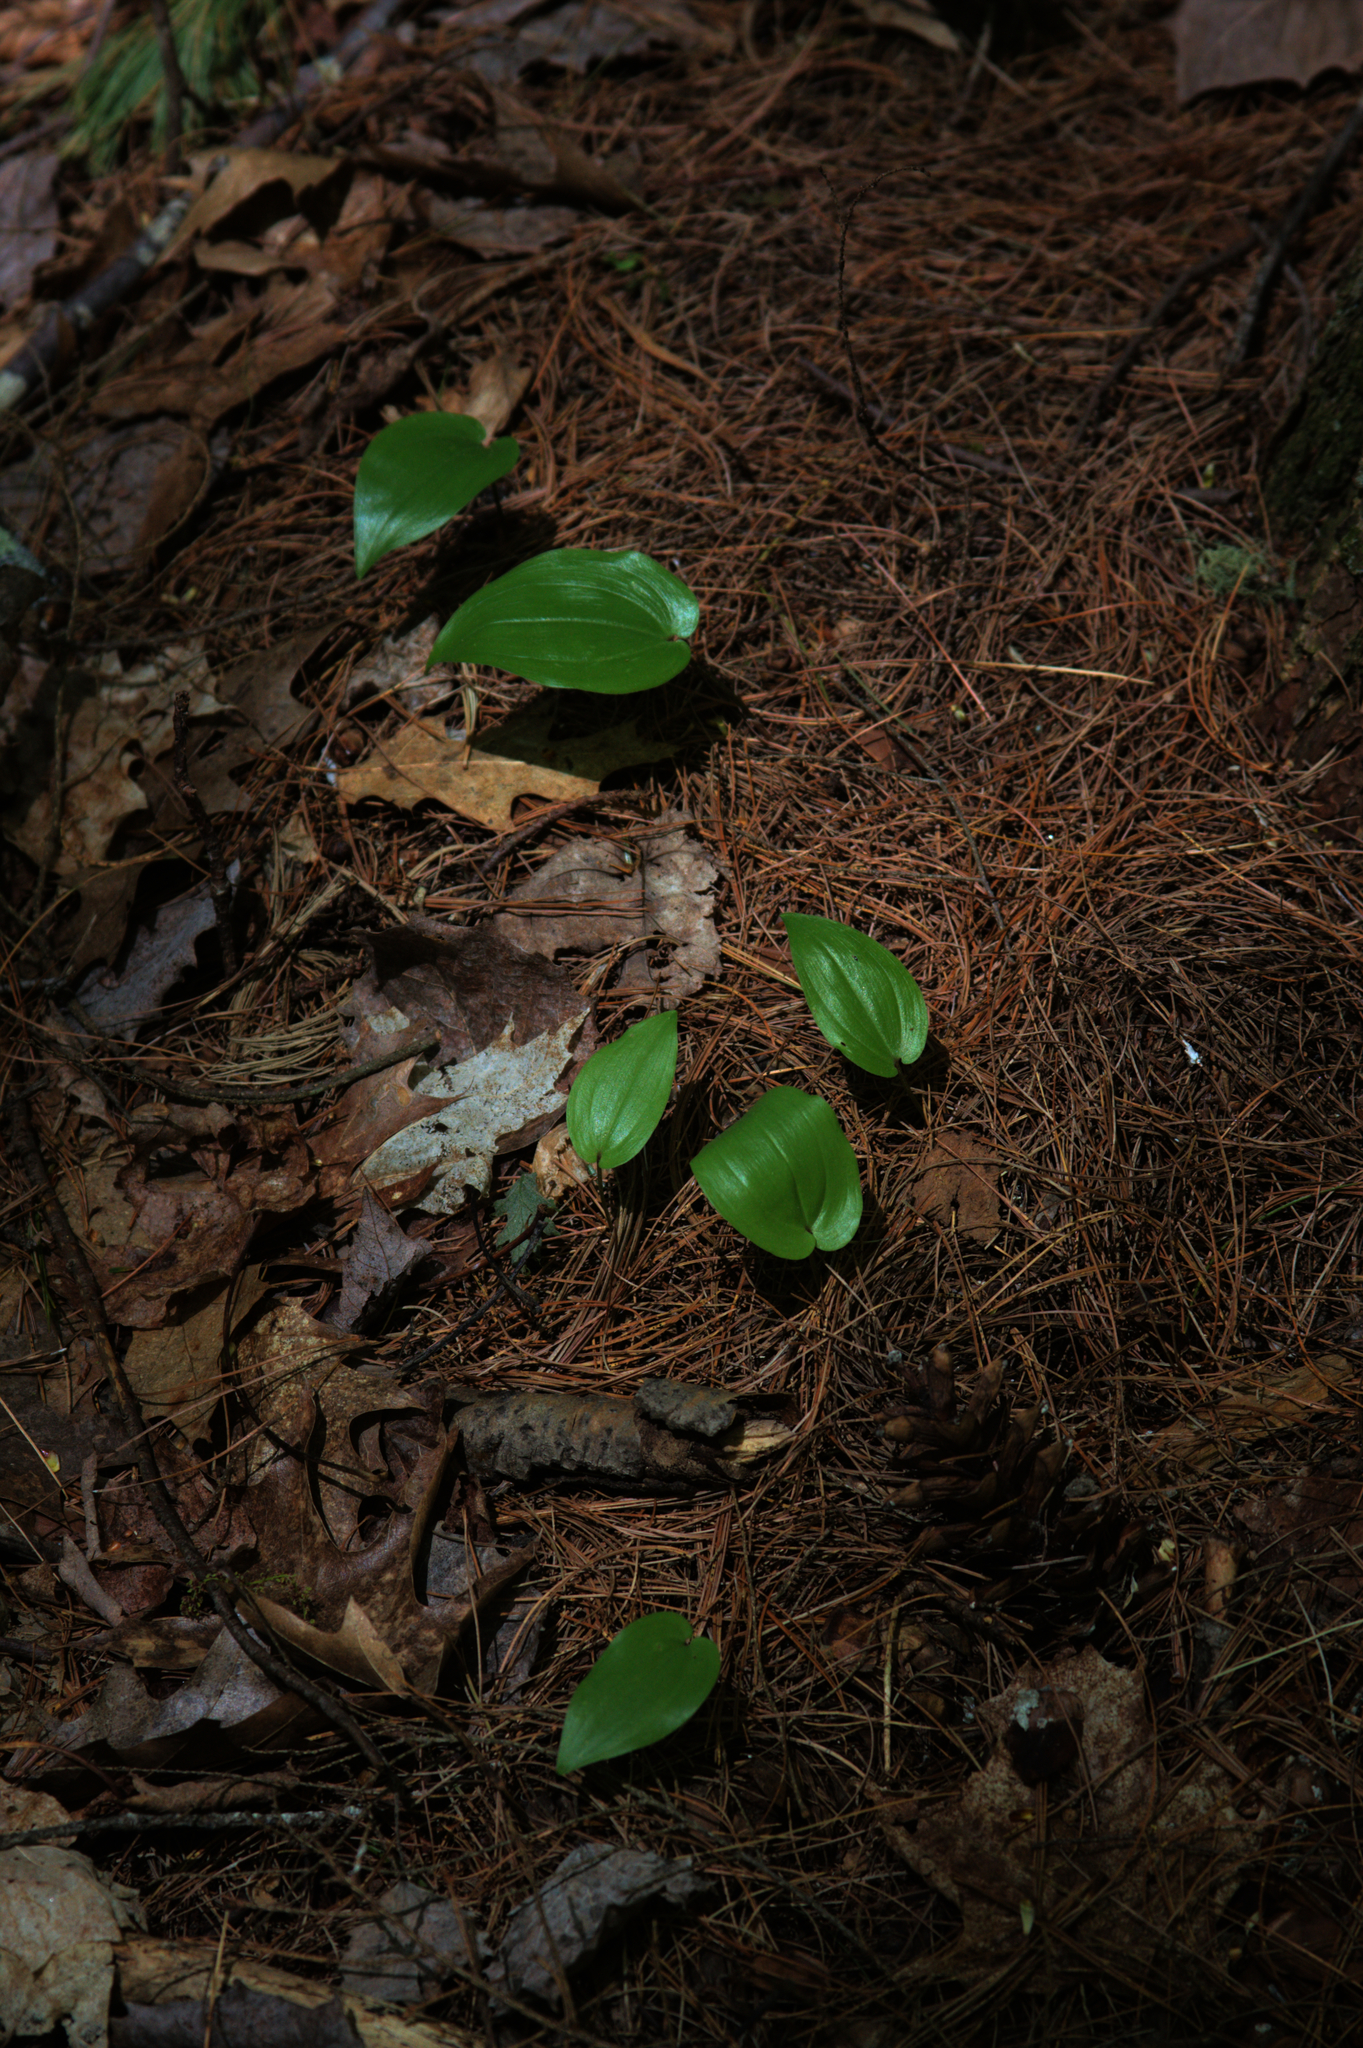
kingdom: Plantae
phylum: Tracheophyta
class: Liliopsida
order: Asparagales
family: Asparagaceae
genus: Maianthemum
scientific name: Maianthemum canadense
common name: False lily-of-the-valley
